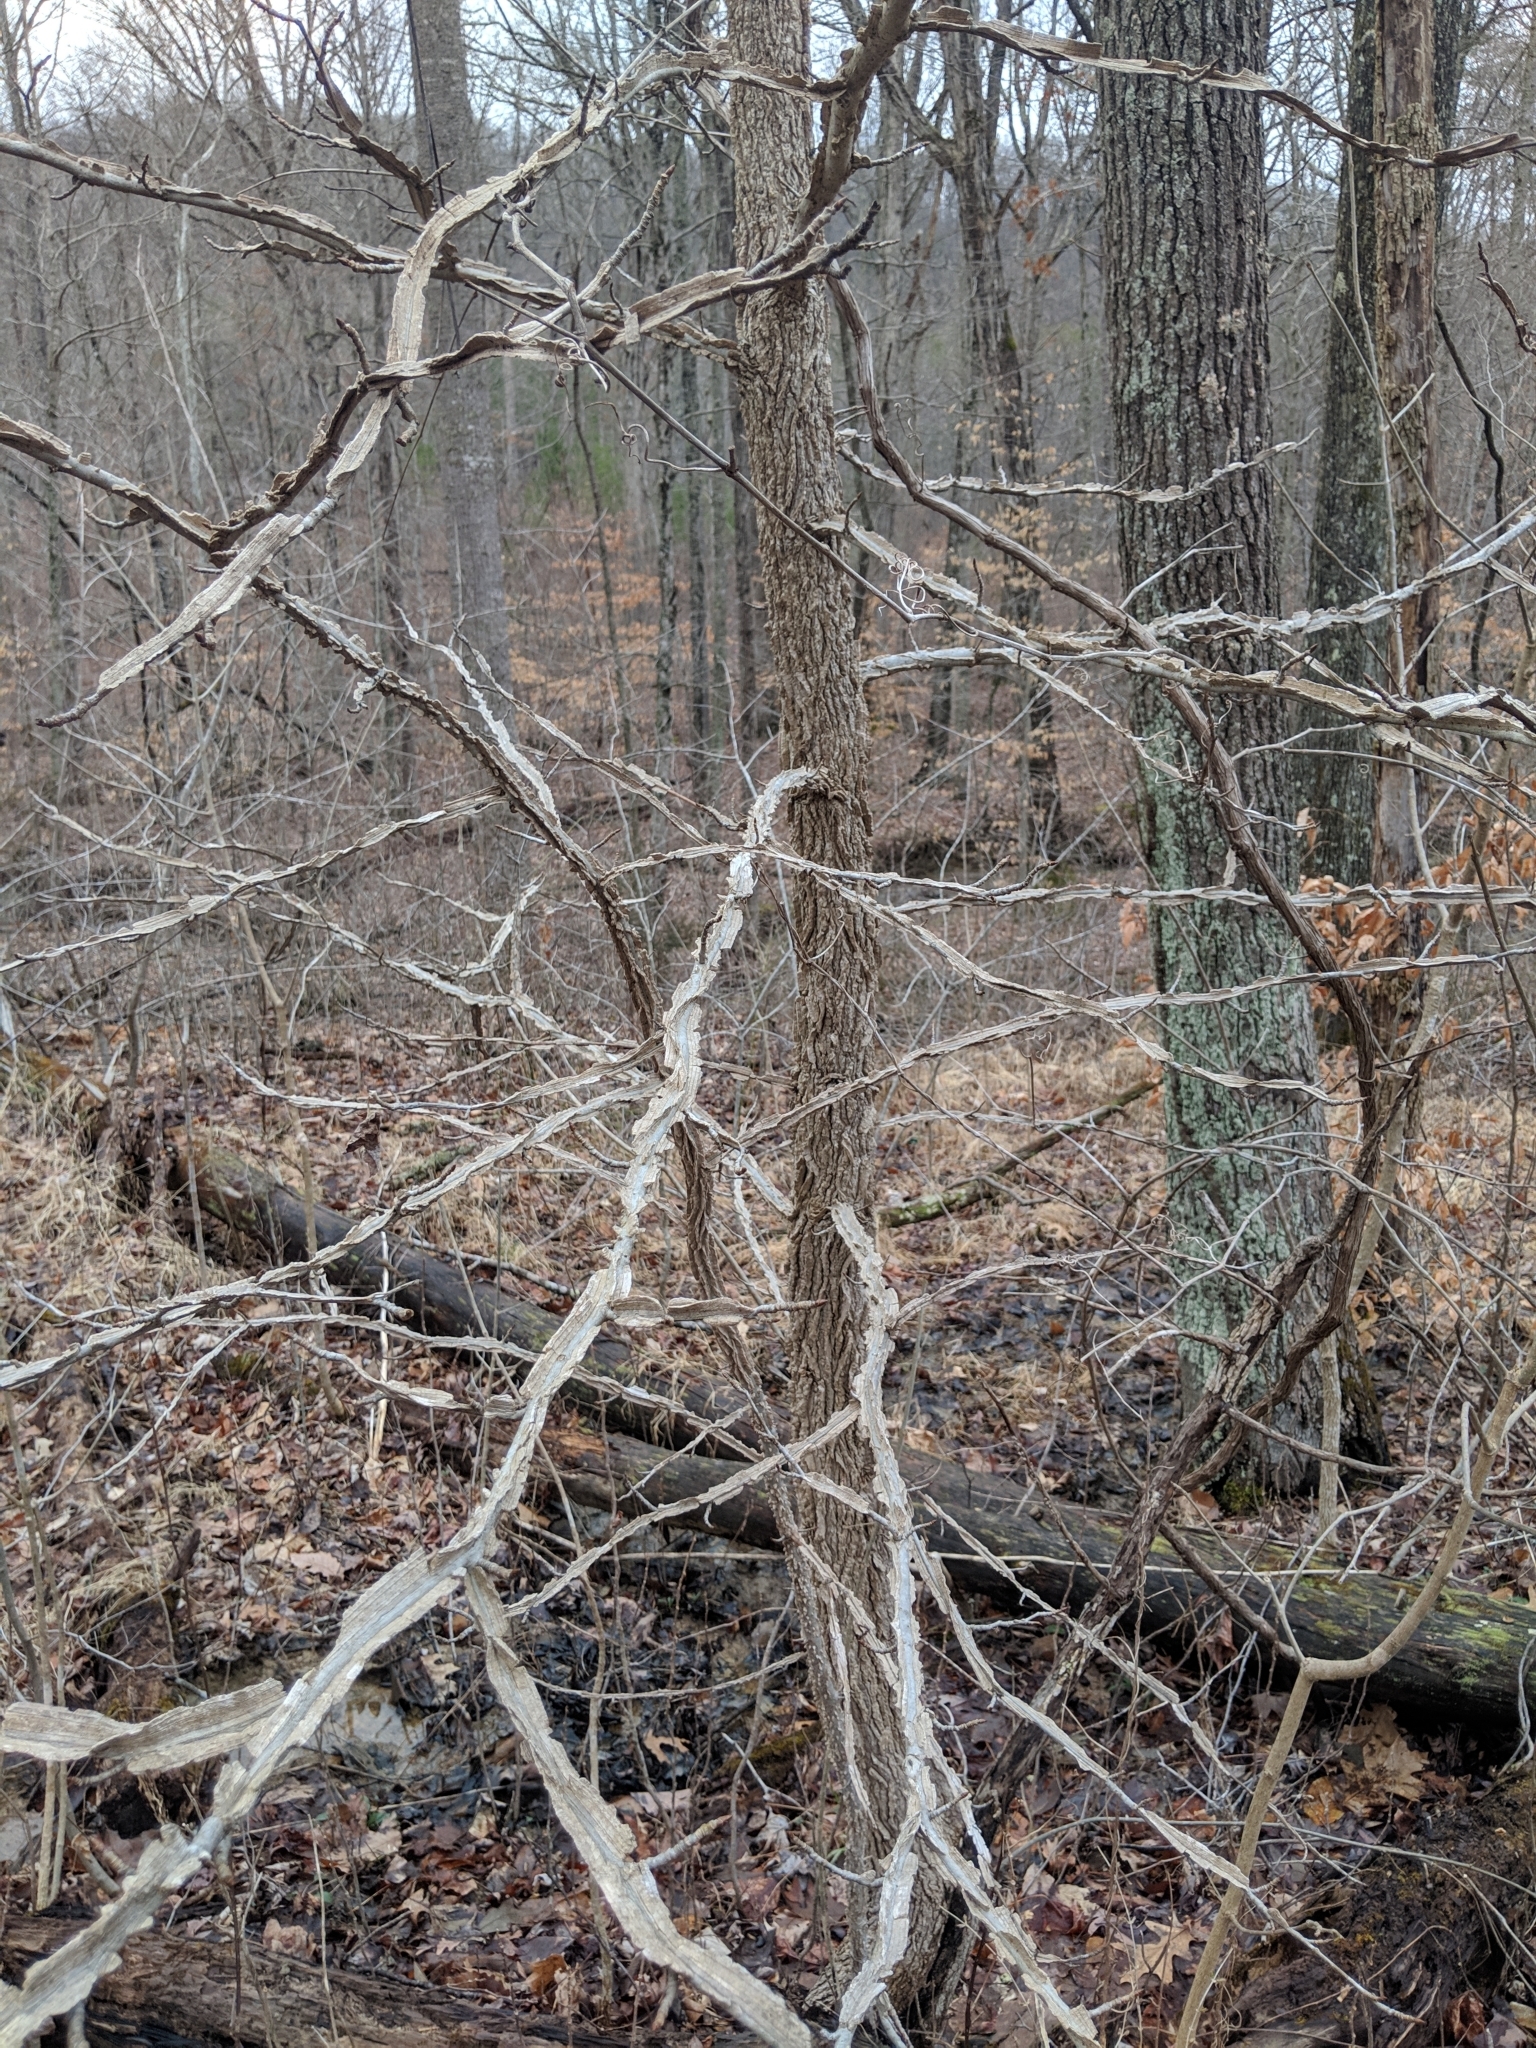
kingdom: Plantae
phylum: Tracheophyta
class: Magnoliopsida
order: Saxifragales
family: Altingiaceae
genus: Liquidambar
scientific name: Liquidambar styraciflua
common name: Sweet gum
